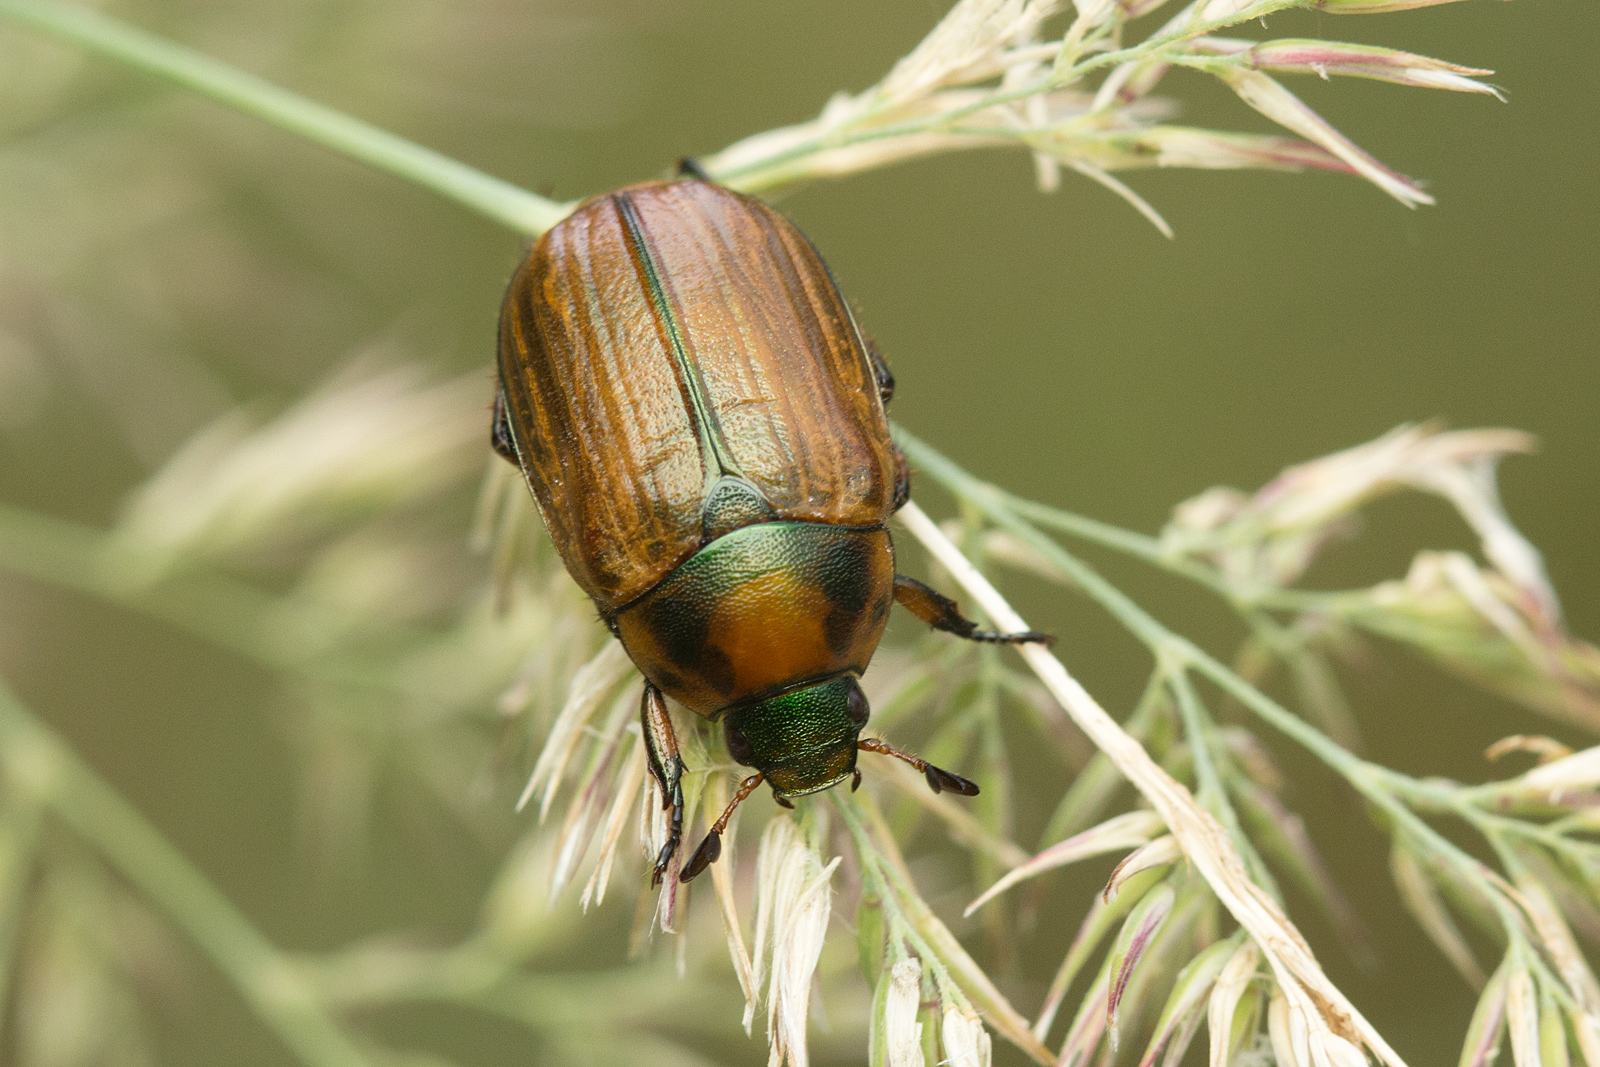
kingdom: Animalia
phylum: Arthropoda
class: Insecta
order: Coleoptera
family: Scarabaeidae
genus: Anomala
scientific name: Anomala dubia
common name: Dune chafer
